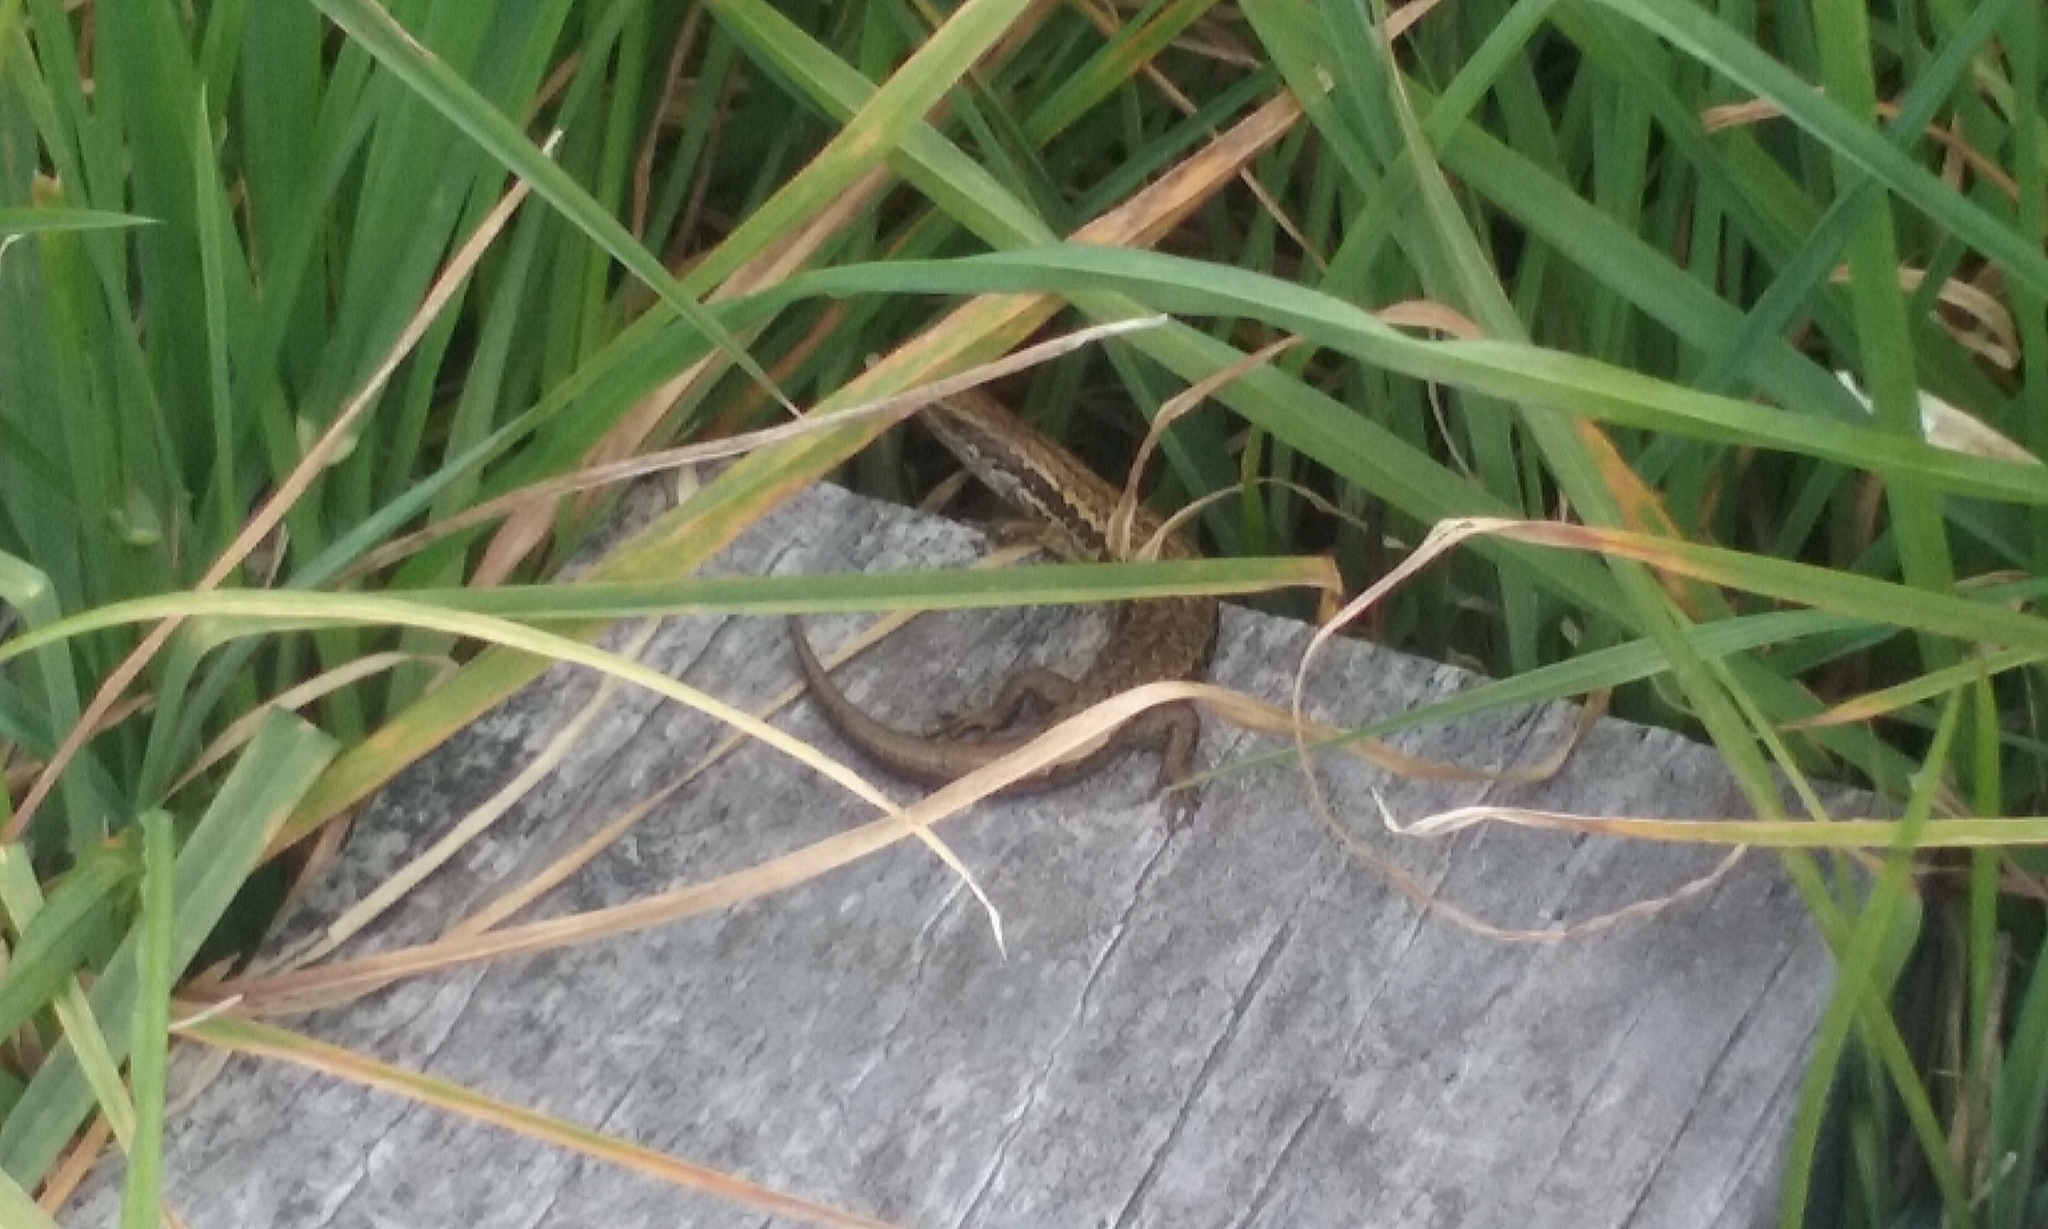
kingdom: Animalia
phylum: Chordata
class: Squamata
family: Scincidae
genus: Oligosoma
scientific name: Oligosoma polychroma
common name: Common new zealand skink
